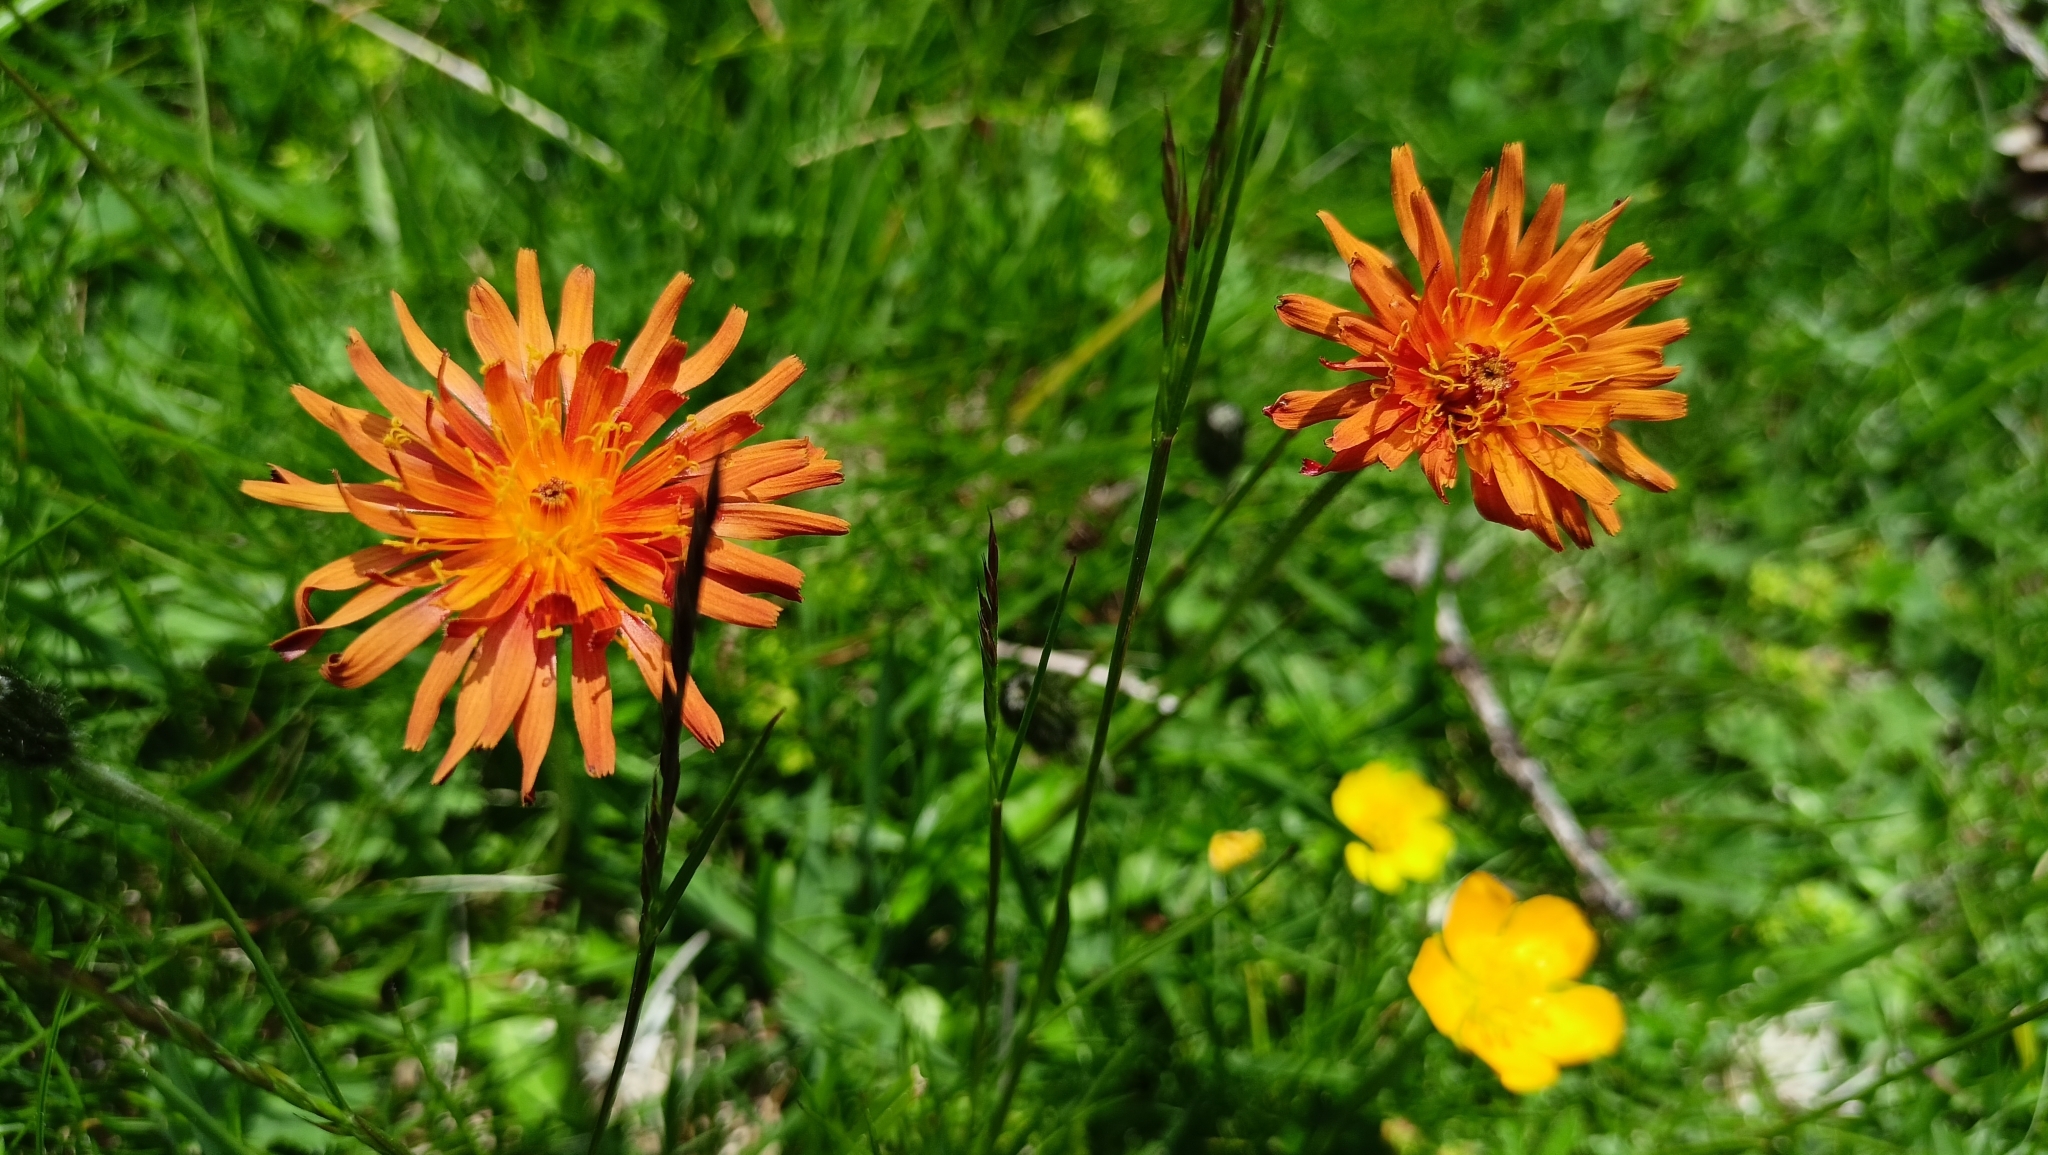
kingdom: Plantae
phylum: Tracheophyta
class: Magnoliopsida
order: Asterales
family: Asteraceae
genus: Crepis
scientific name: Crepis aurea
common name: Golden hawk's-beard
